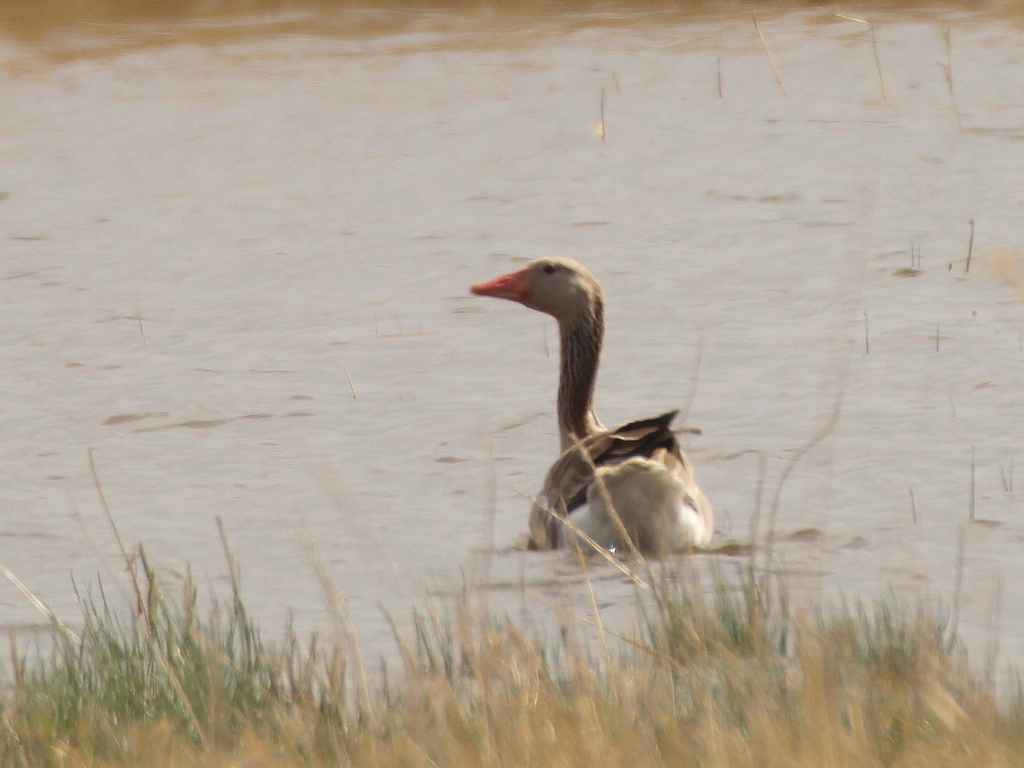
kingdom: Animalia
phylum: Chordata
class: Aves
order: Anseriformes
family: Anatidae
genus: Anser
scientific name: Anser anser
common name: Greylag goose
